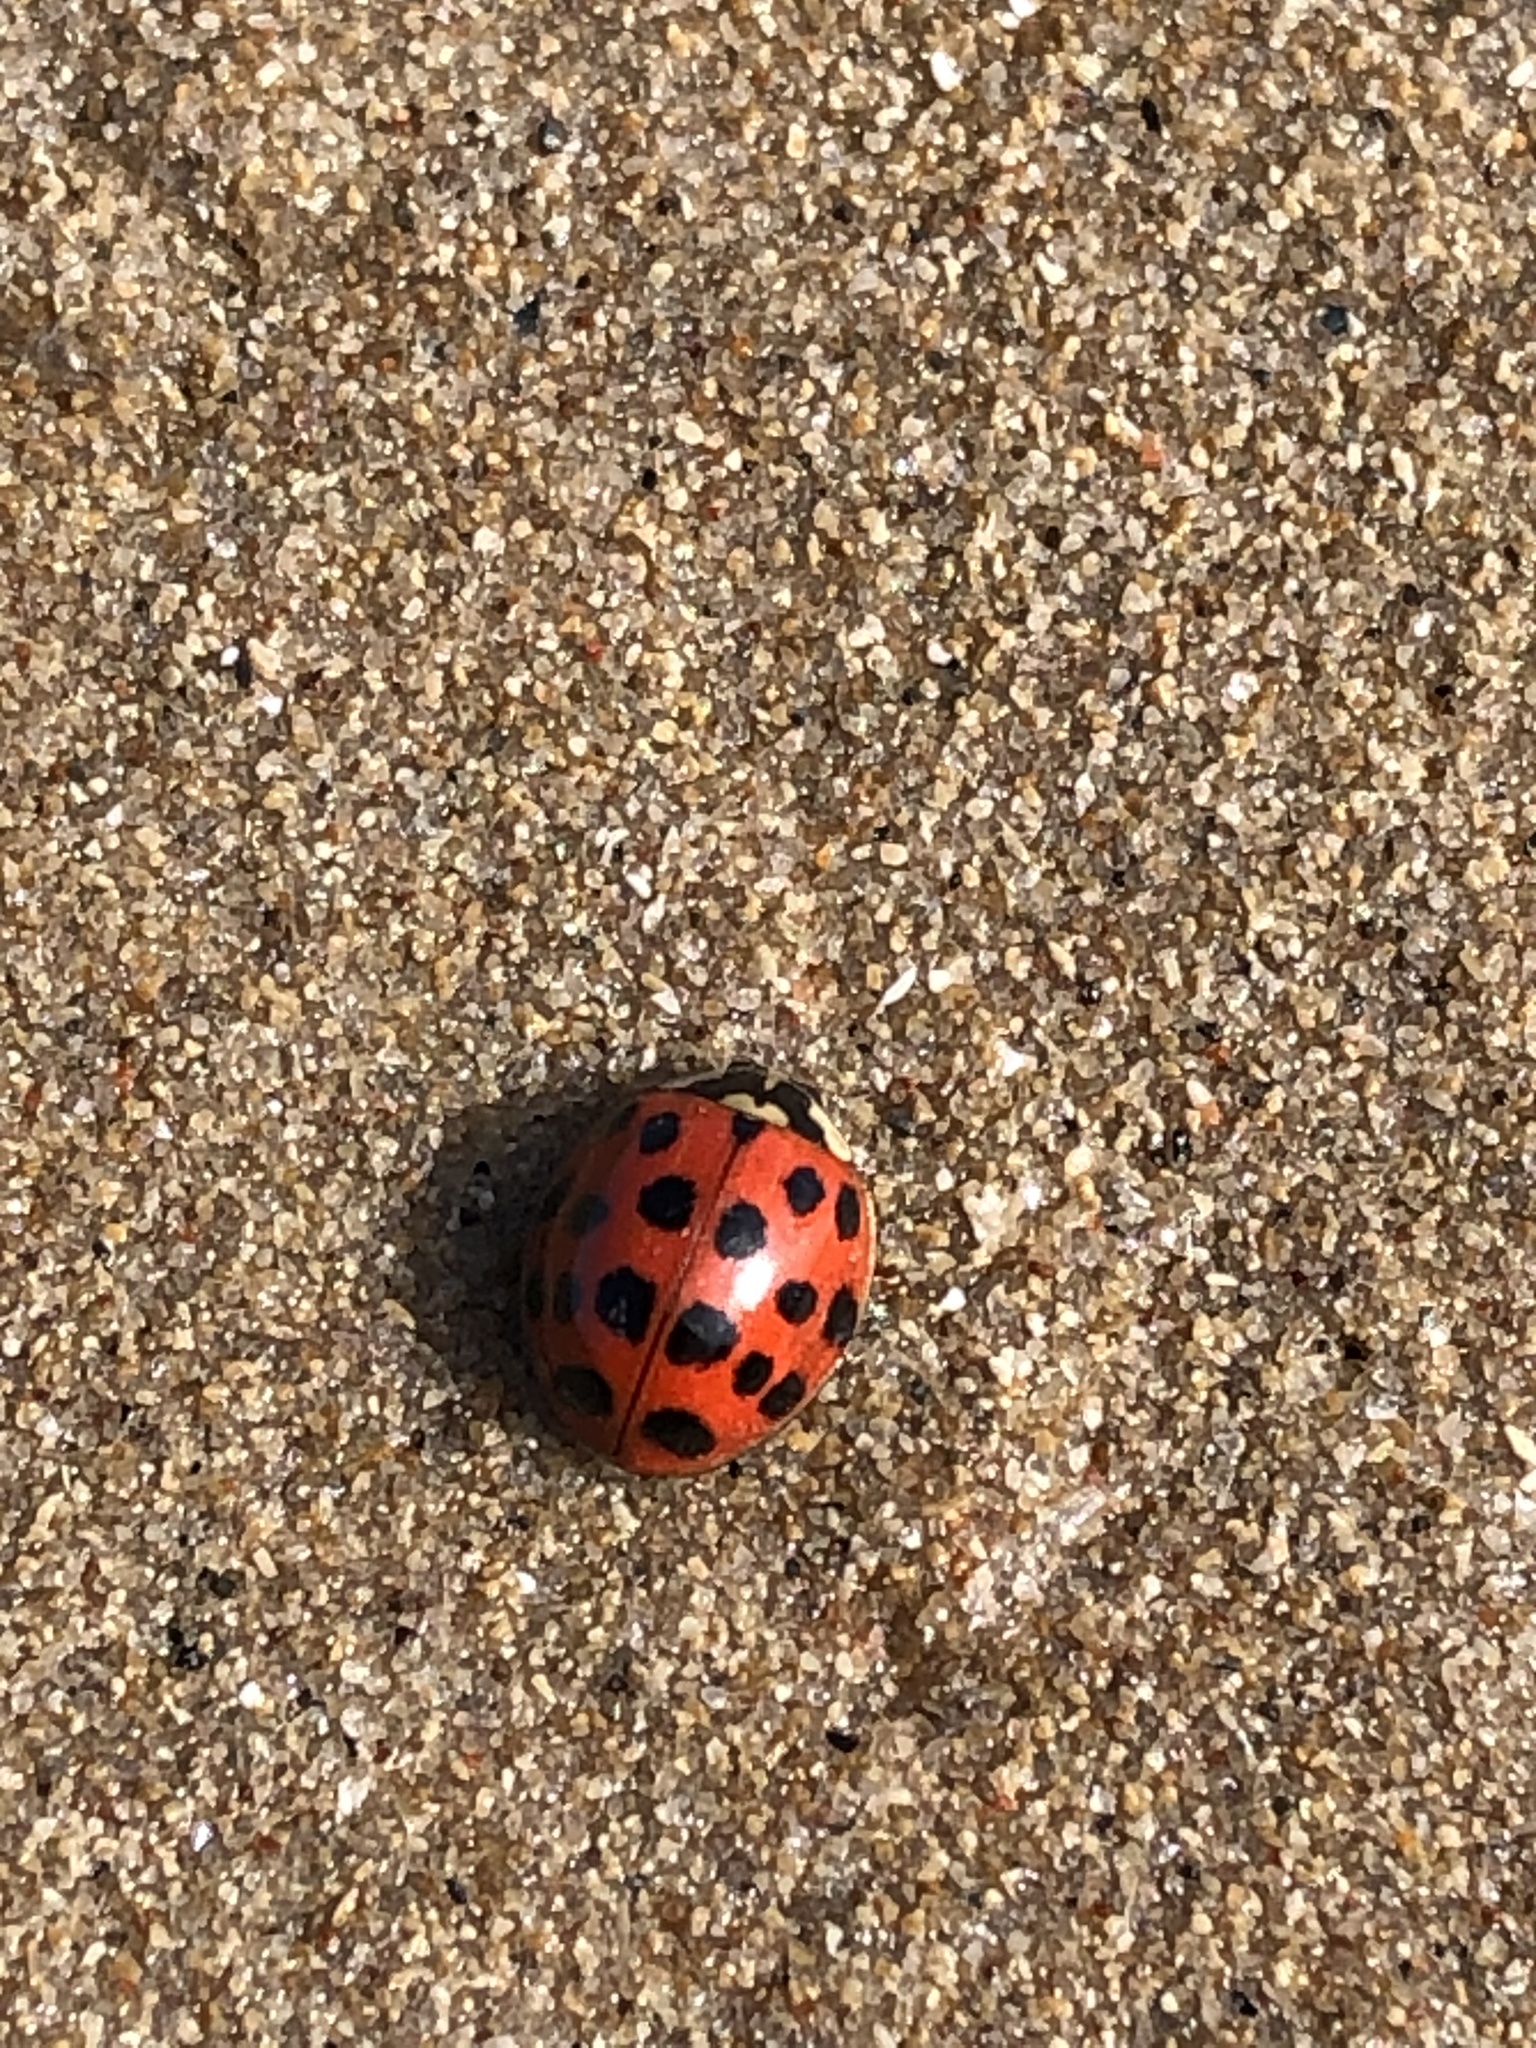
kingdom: Animalia
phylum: Arthropoda
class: Insecta
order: Coleoptera
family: Coccinellidae
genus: Harmonia
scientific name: Harmonia axyridis
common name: Harlequin ladybird
